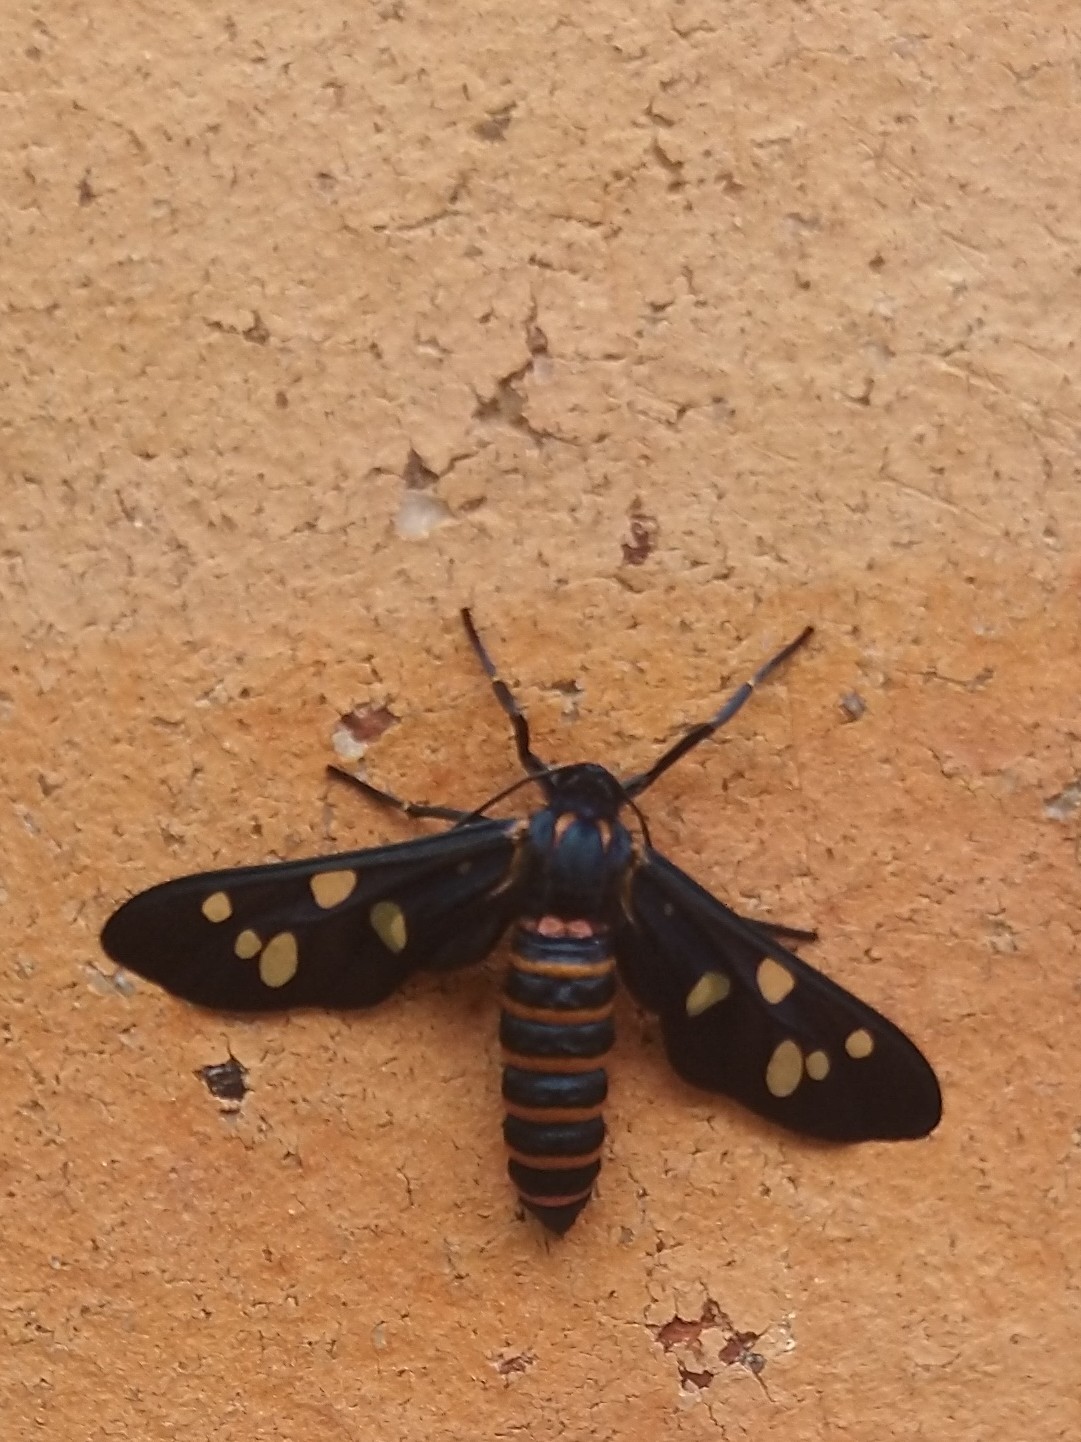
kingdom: Animalia
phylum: Arthropoda
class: Insecta
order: Lepidoptera
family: Erebidae
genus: Amata
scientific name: Amata passalis
